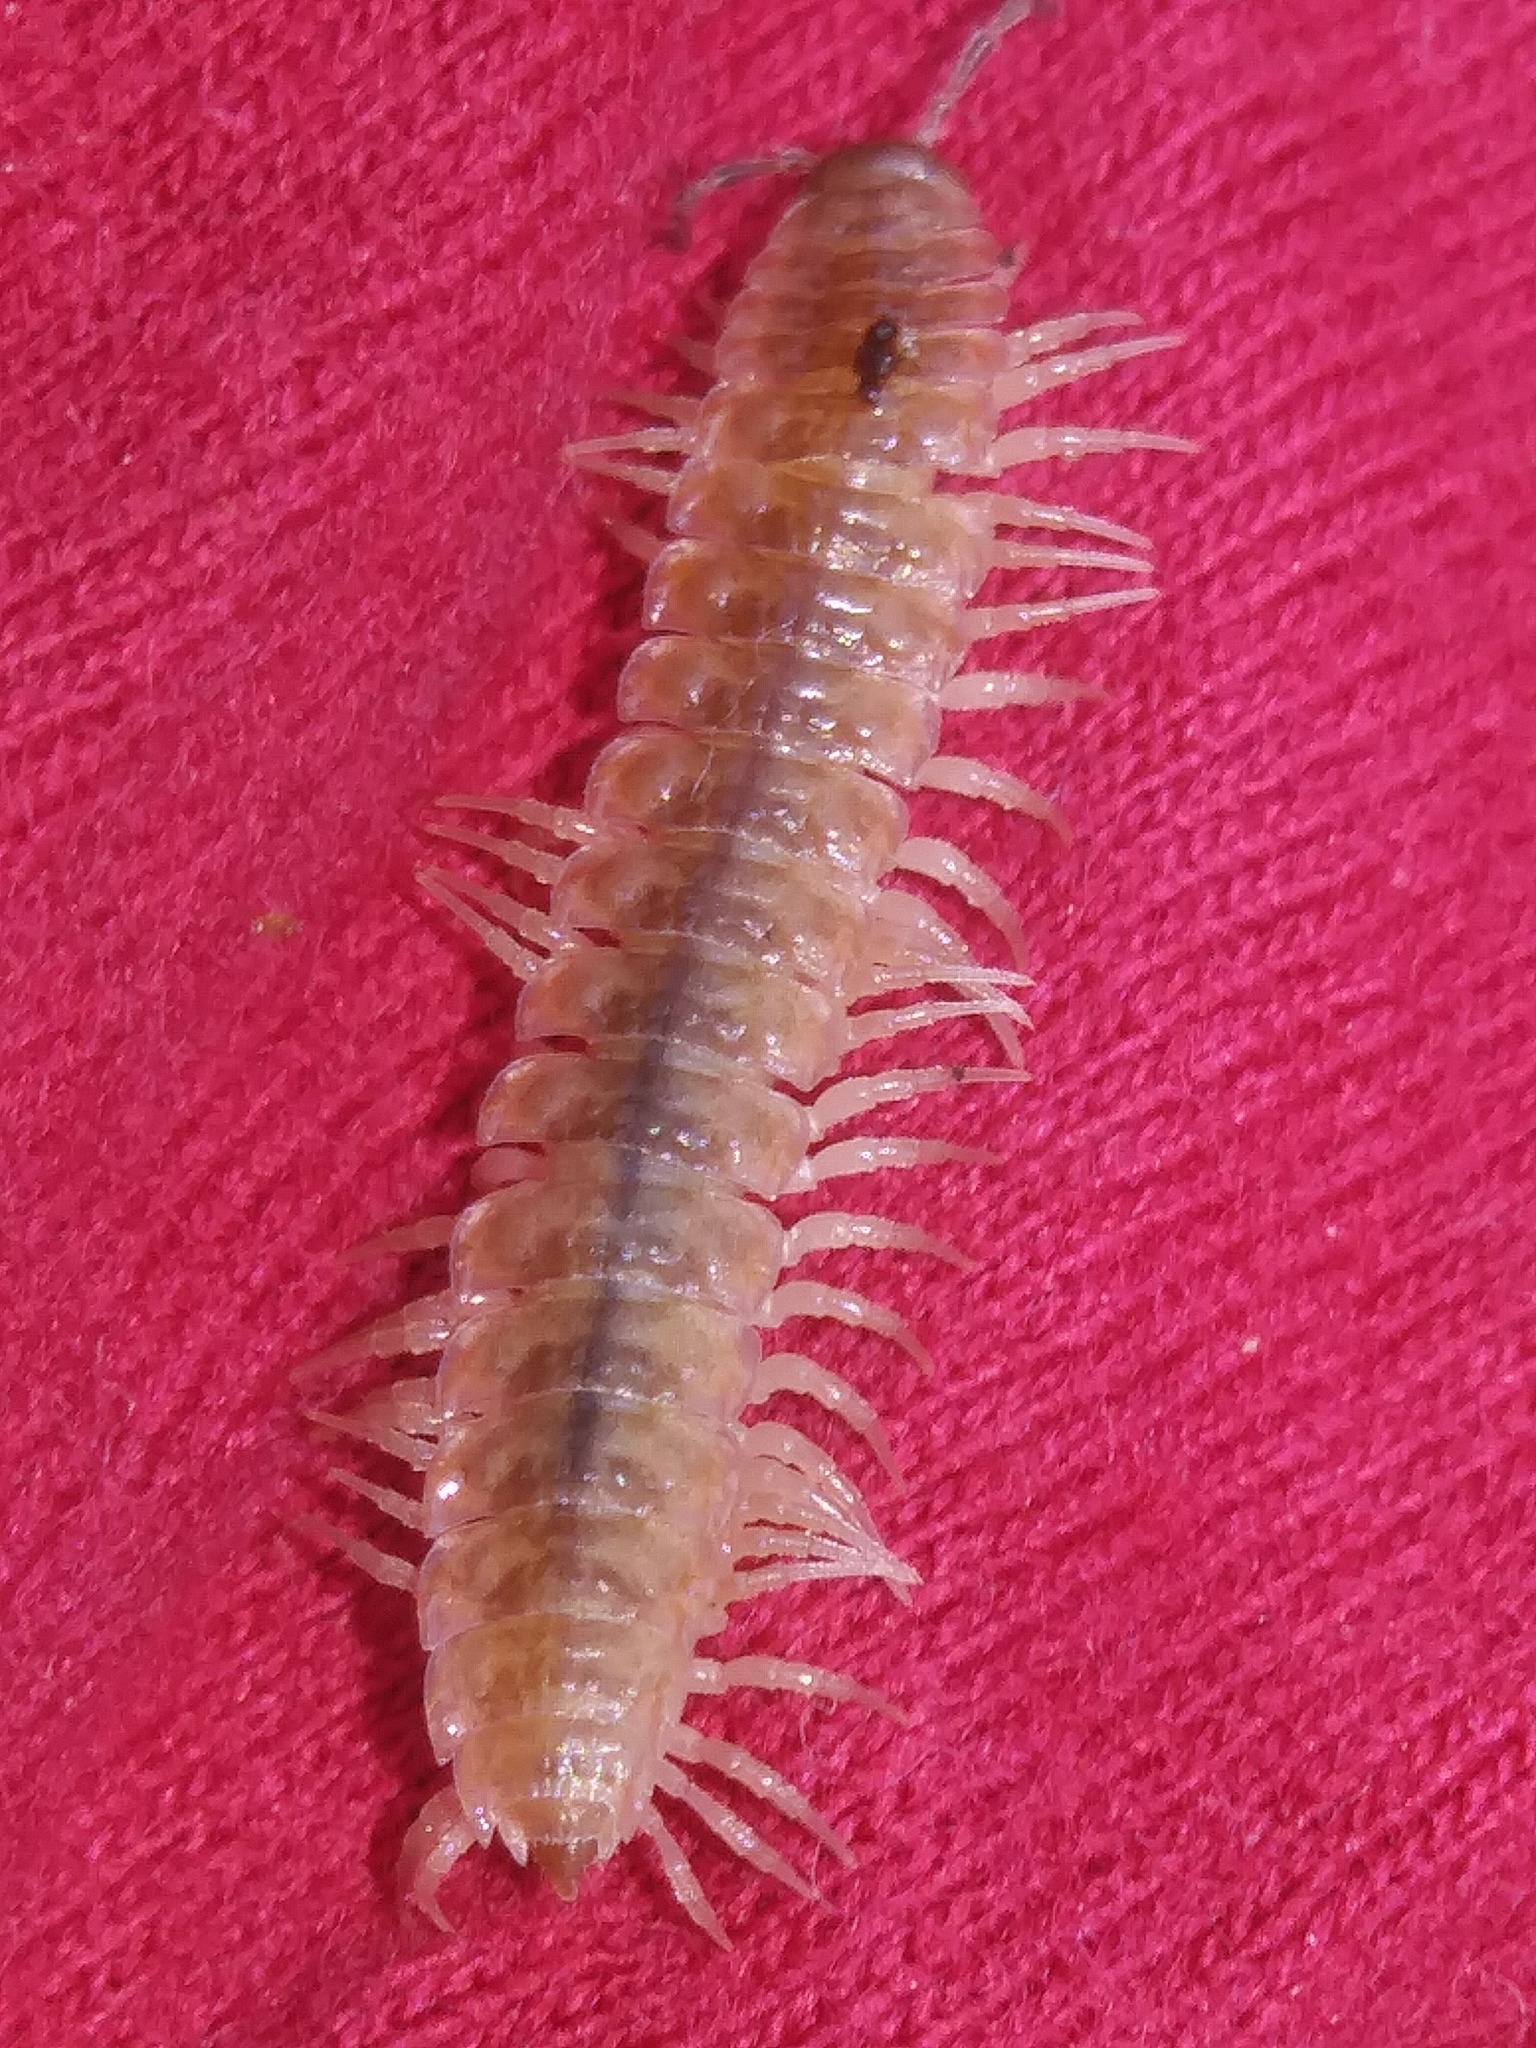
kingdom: Animalia
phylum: Arthropoda
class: Diplopoda
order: Polydesmida
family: Polydesmidae
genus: Pseudopolydesmus
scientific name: Pseudopolydesmus serratus
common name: Common pink flat-back millipede
